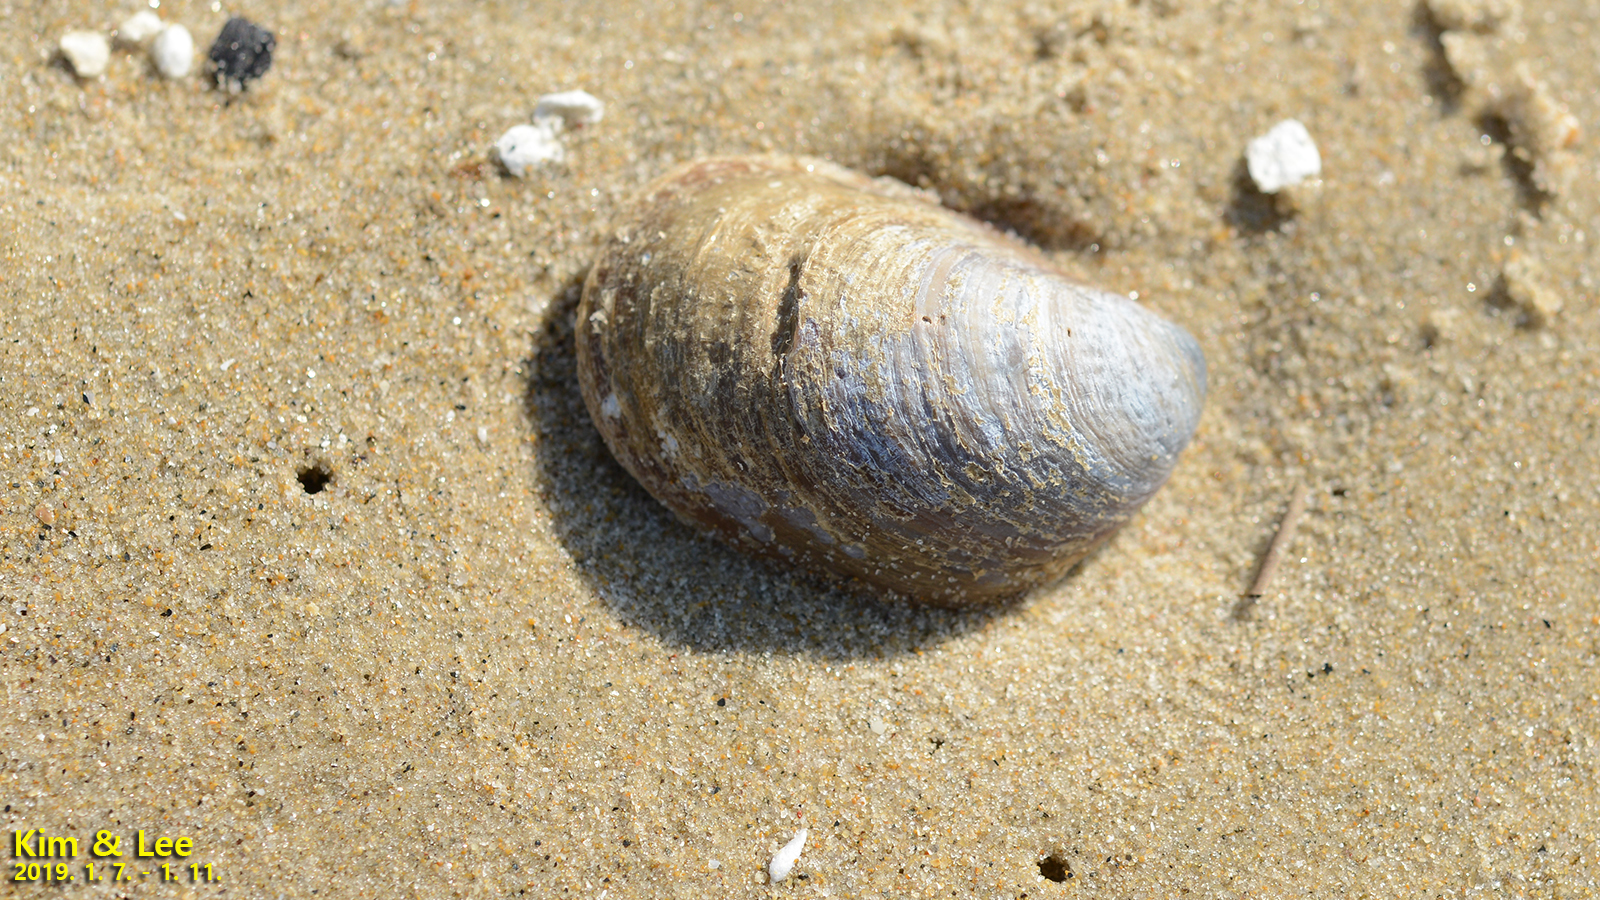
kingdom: Animalia
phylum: Mollusca
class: Gastropoda
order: Littorinimorpha
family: Calyptraeidae
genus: Crepidula
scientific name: Crepidula onyx
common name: Onyx slippersnail
